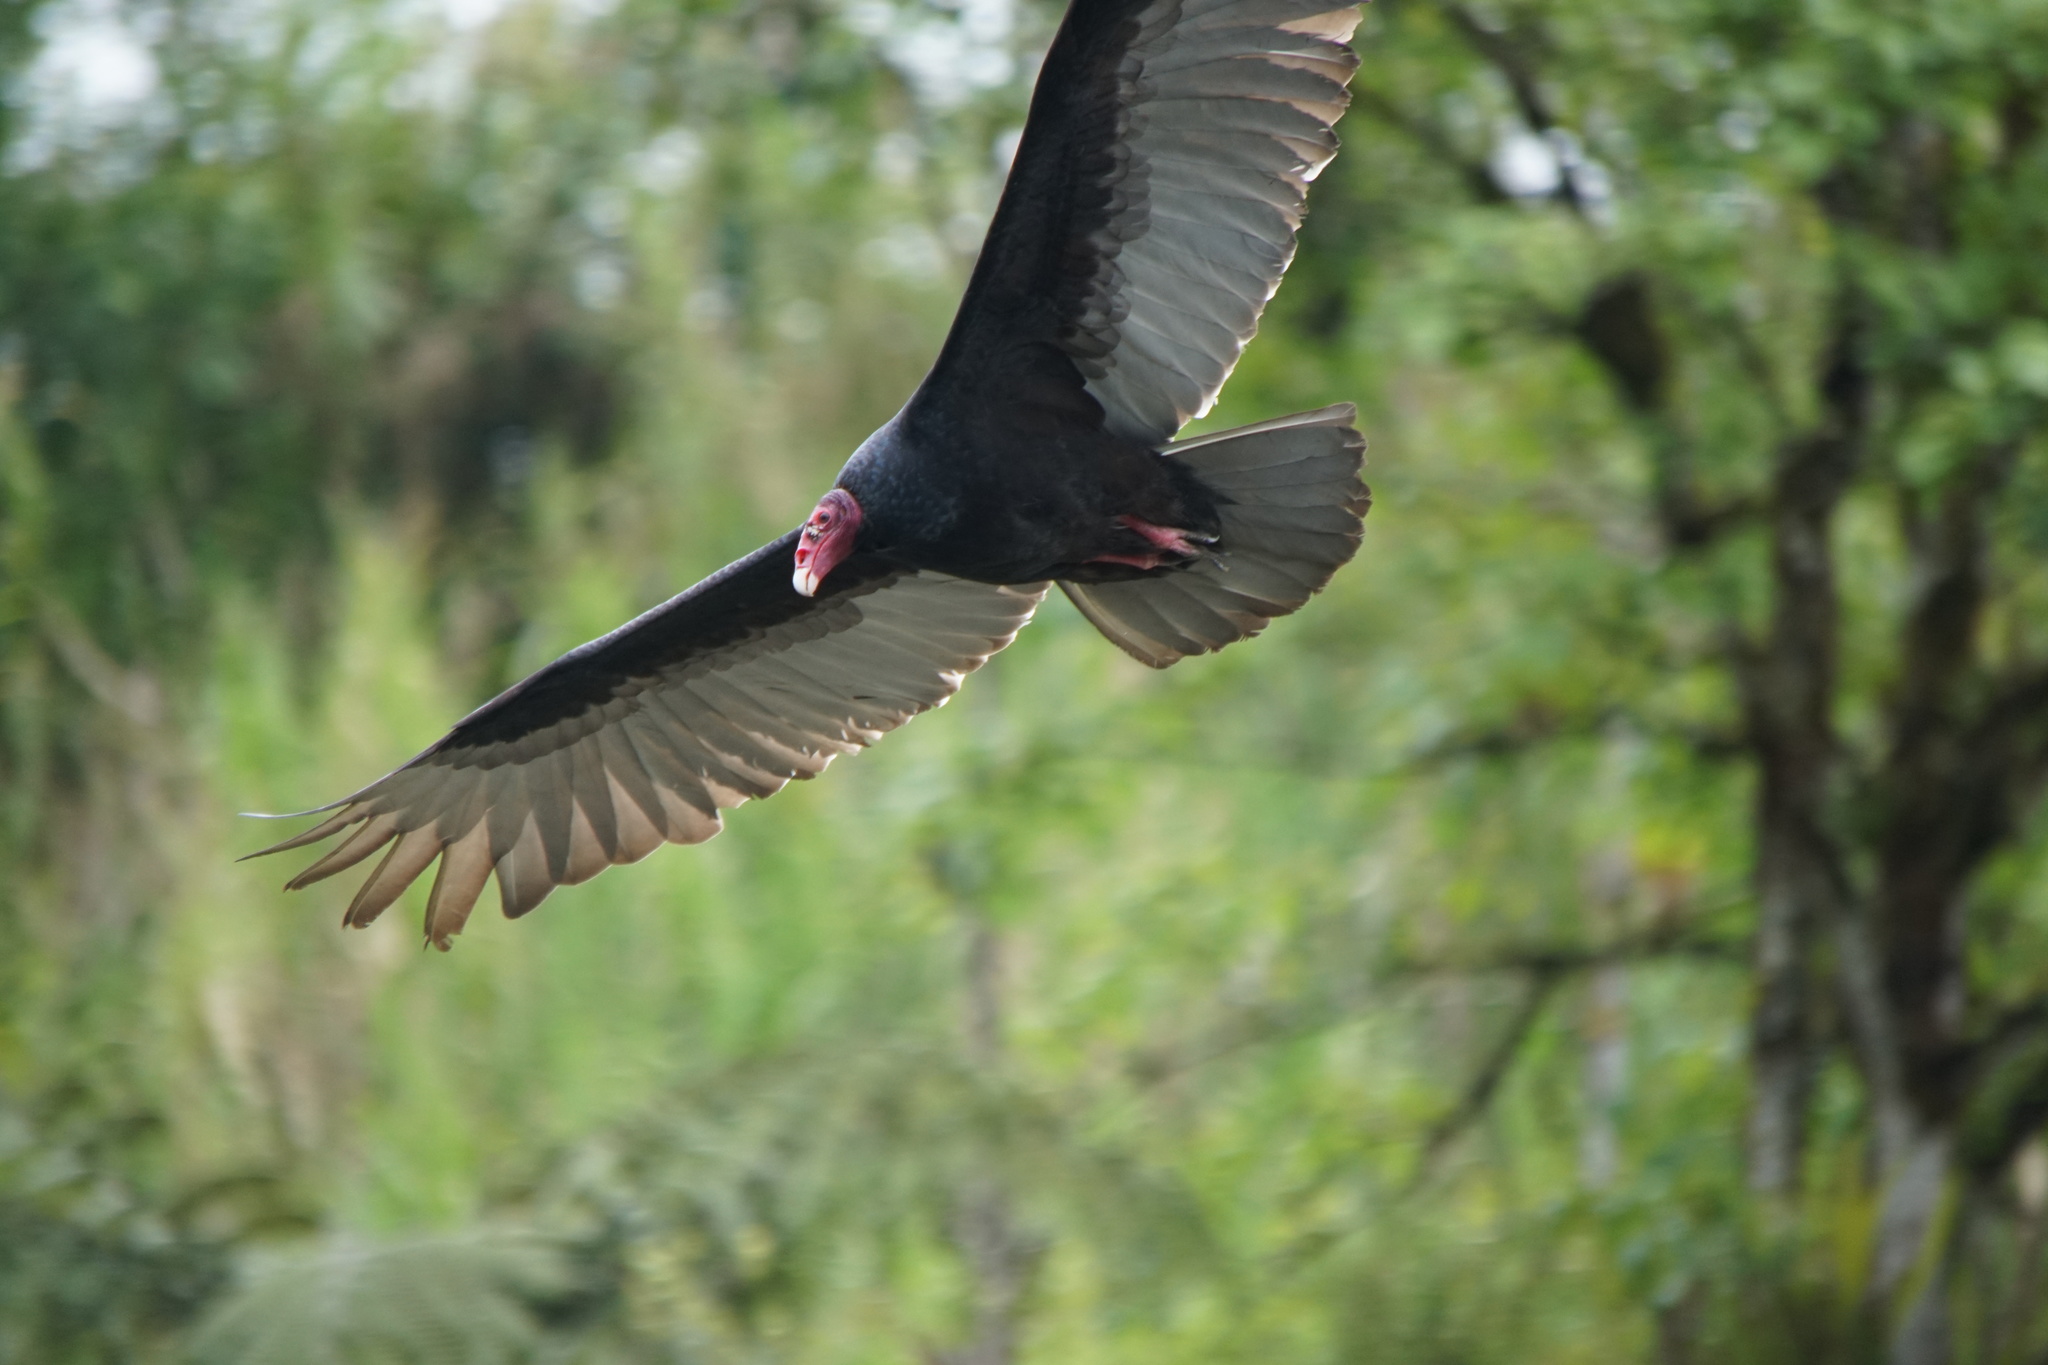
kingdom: Animalia
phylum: Chordata
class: Aves
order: Accipitriformes
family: Cathartidae
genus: Cathartes
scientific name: Cathartes aura
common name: Turkey vulture
